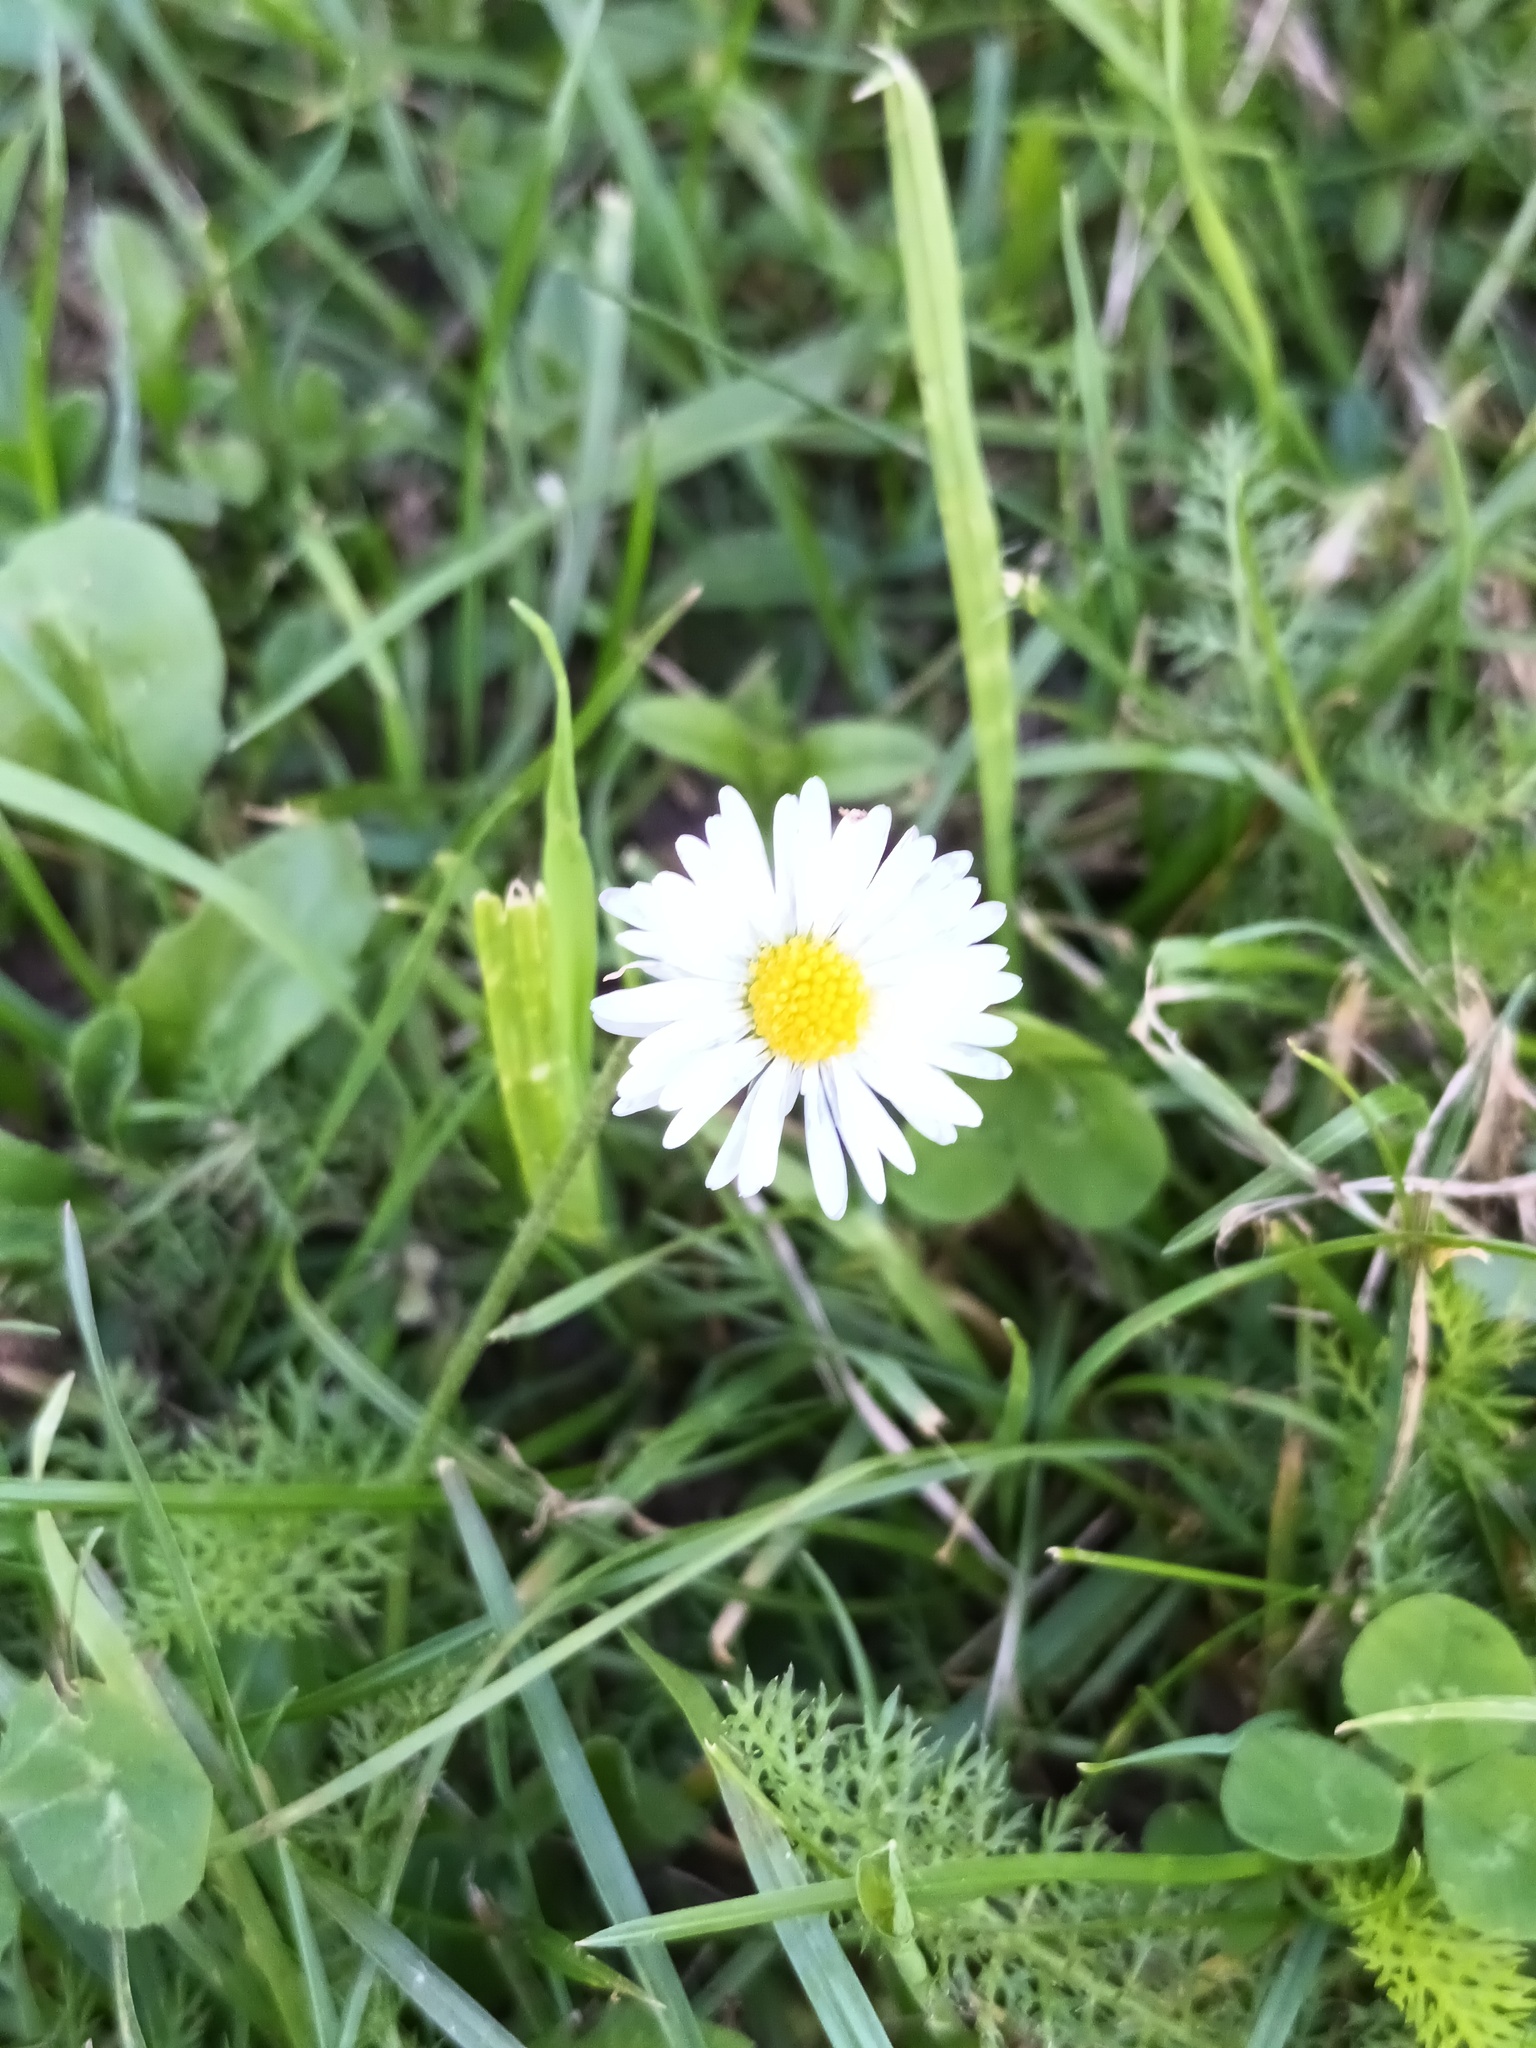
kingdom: Plantae
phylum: Tracheophyta
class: Magnoliopsida
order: Asterales
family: Asteraceae
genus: Bellis
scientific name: Bellis perennis
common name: Lawndaisy
